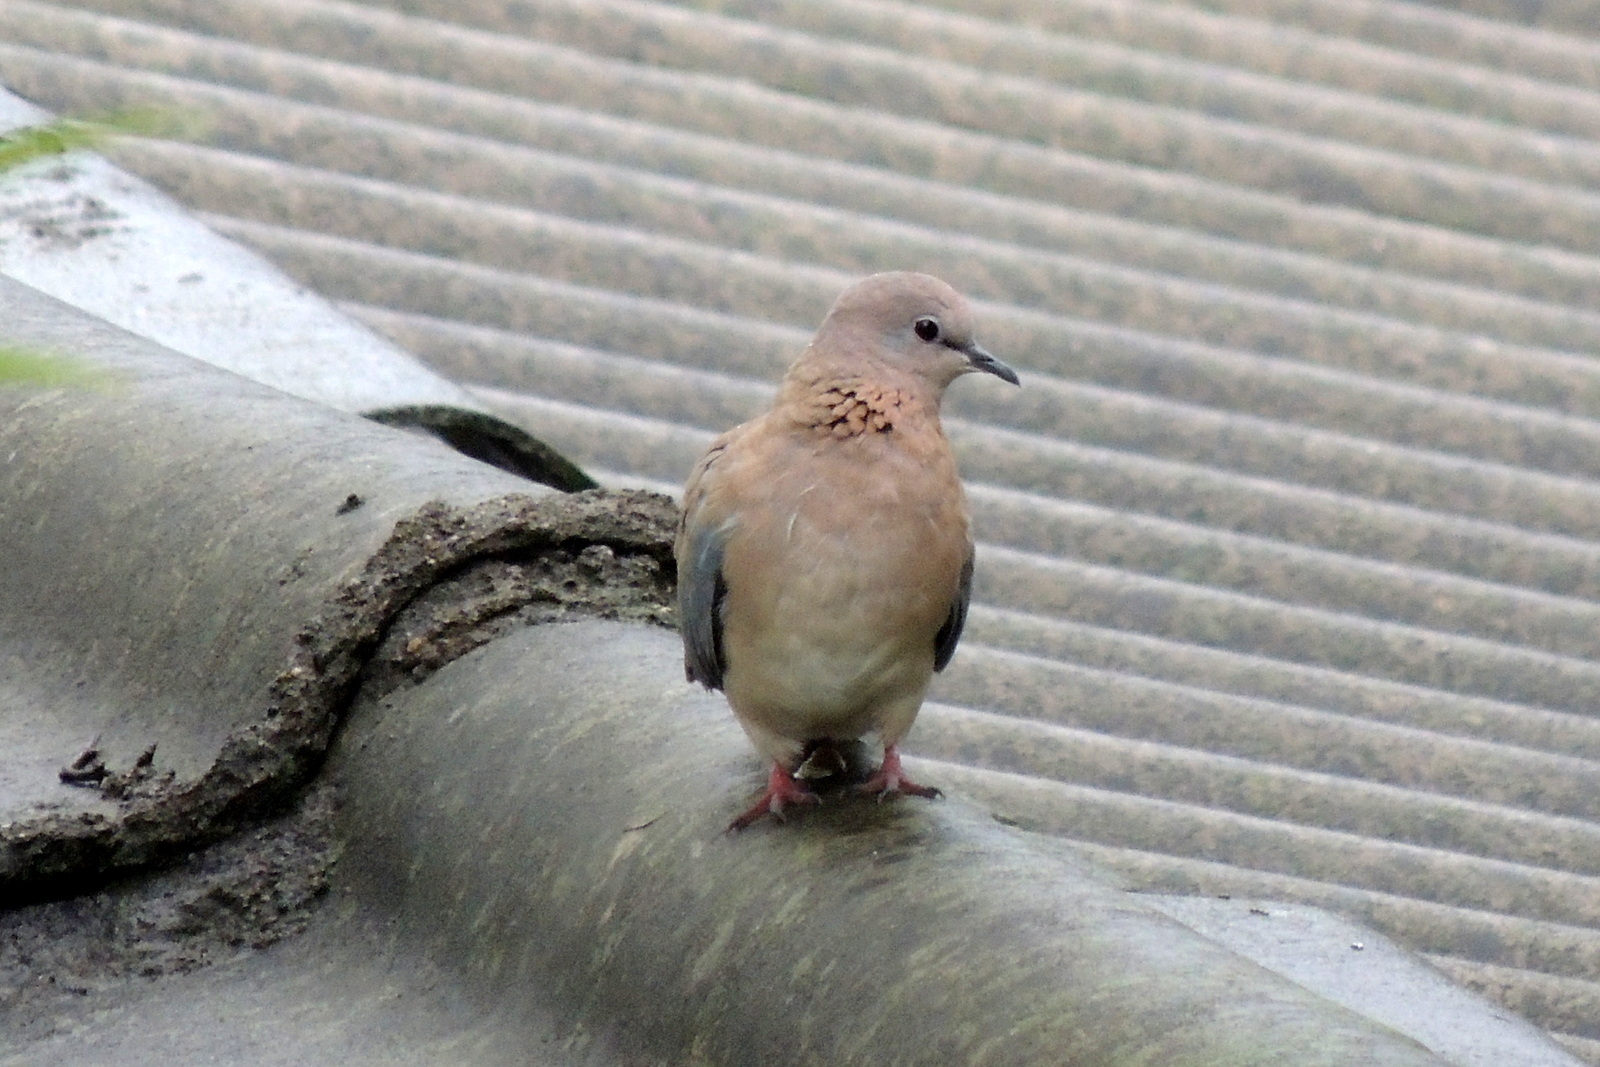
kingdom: Animalia
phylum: Chordata
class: Aves
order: Columbiformes
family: Columbidae
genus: Spilopelia
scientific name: Spilopelia senegalensis
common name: Laughing dove
